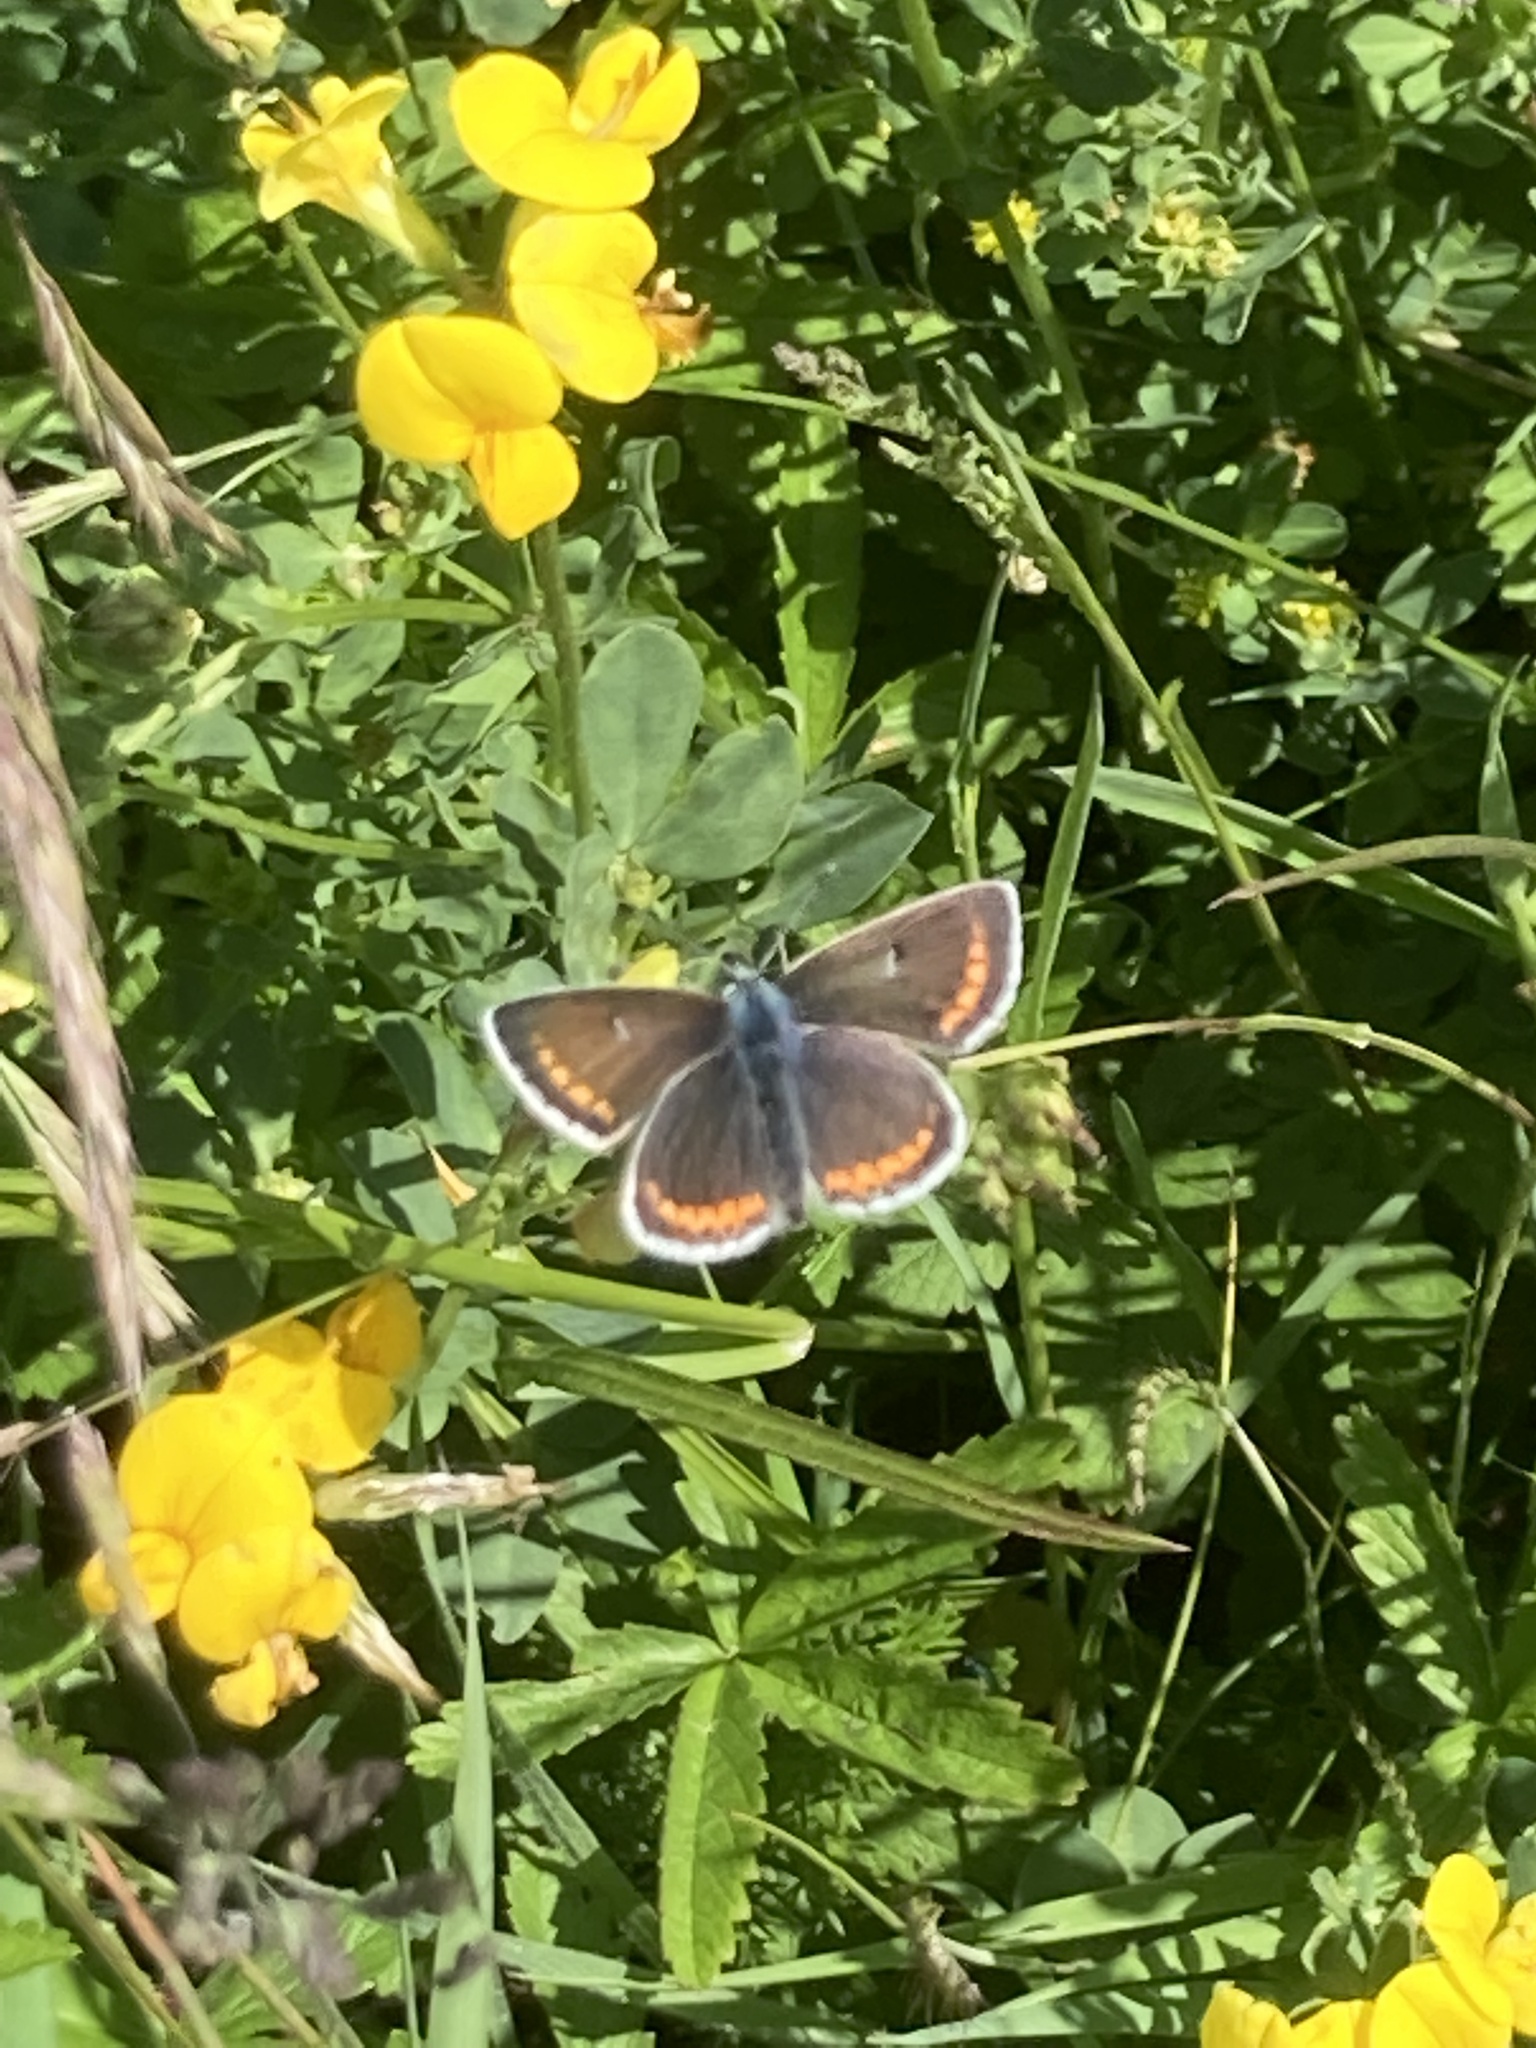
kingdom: Plantae
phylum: Tracheophyta
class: Magnoliopsida
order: Fabales
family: Fabaceae
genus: Lotus
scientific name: Lotus corniculatus
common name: Common bird's-foot-trefoil
